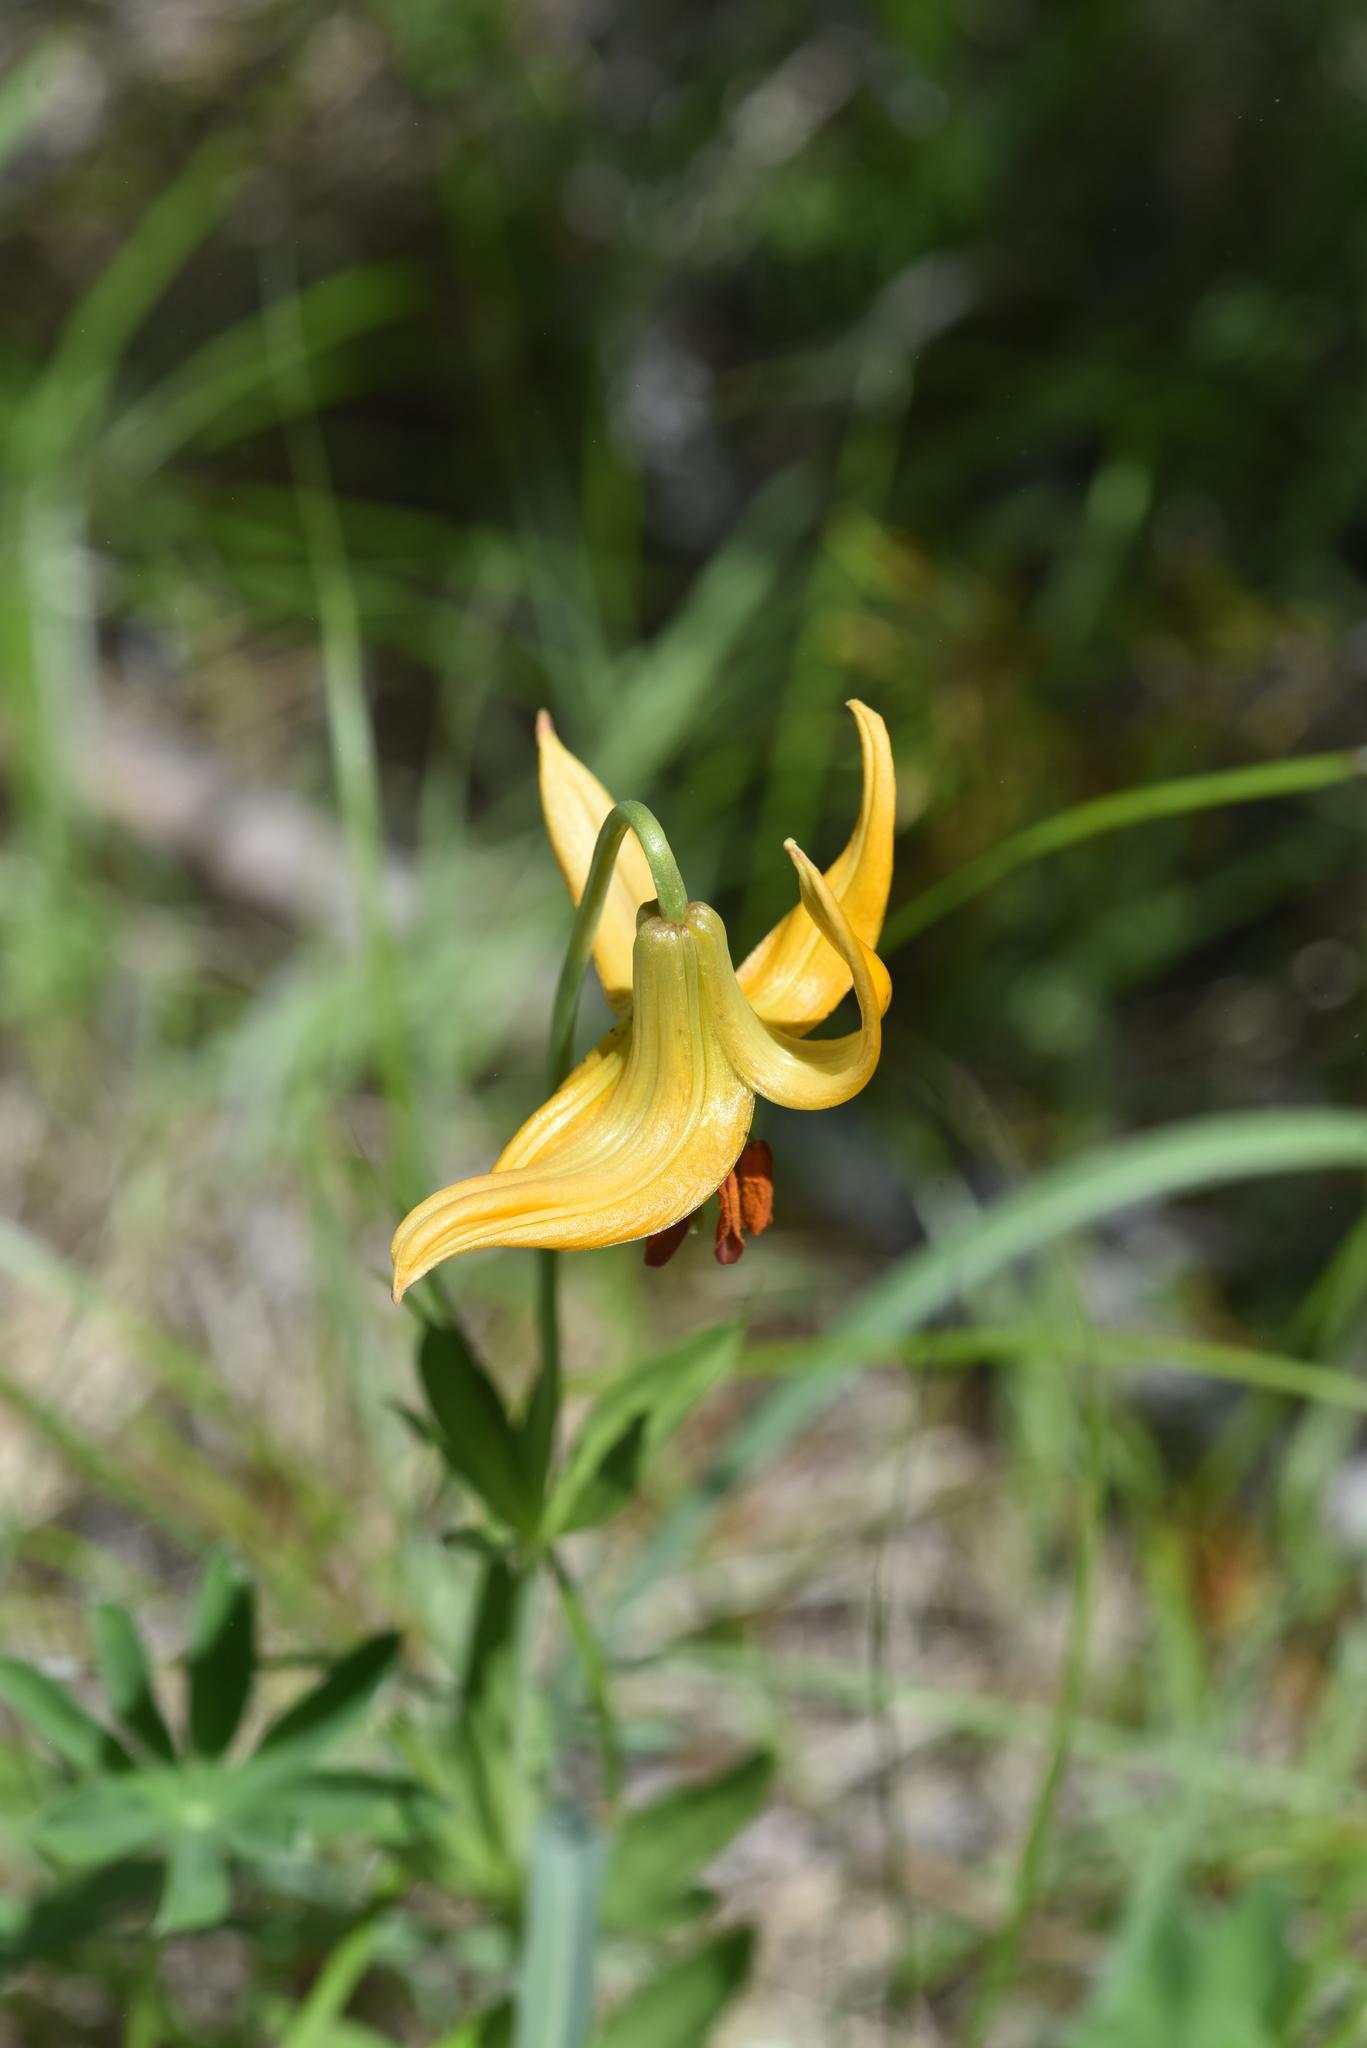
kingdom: Plantae
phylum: Tracheophyta
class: Liliopsida
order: Liliales
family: Liliaceae
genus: Lilium
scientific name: Lilium columbianum
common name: Columbia lily
